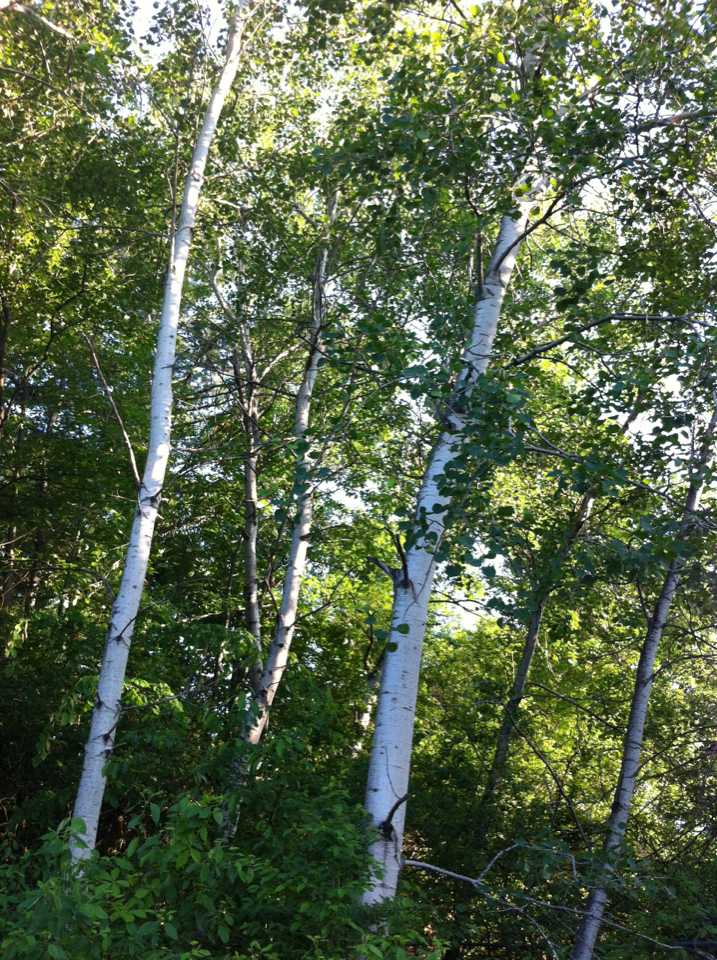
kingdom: Plantae
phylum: Tracheophyta
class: Magnoliopsida
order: Malpighiales
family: Salicaceae
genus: Populus
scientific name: Populus tremuloides
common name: Quaking aspen
